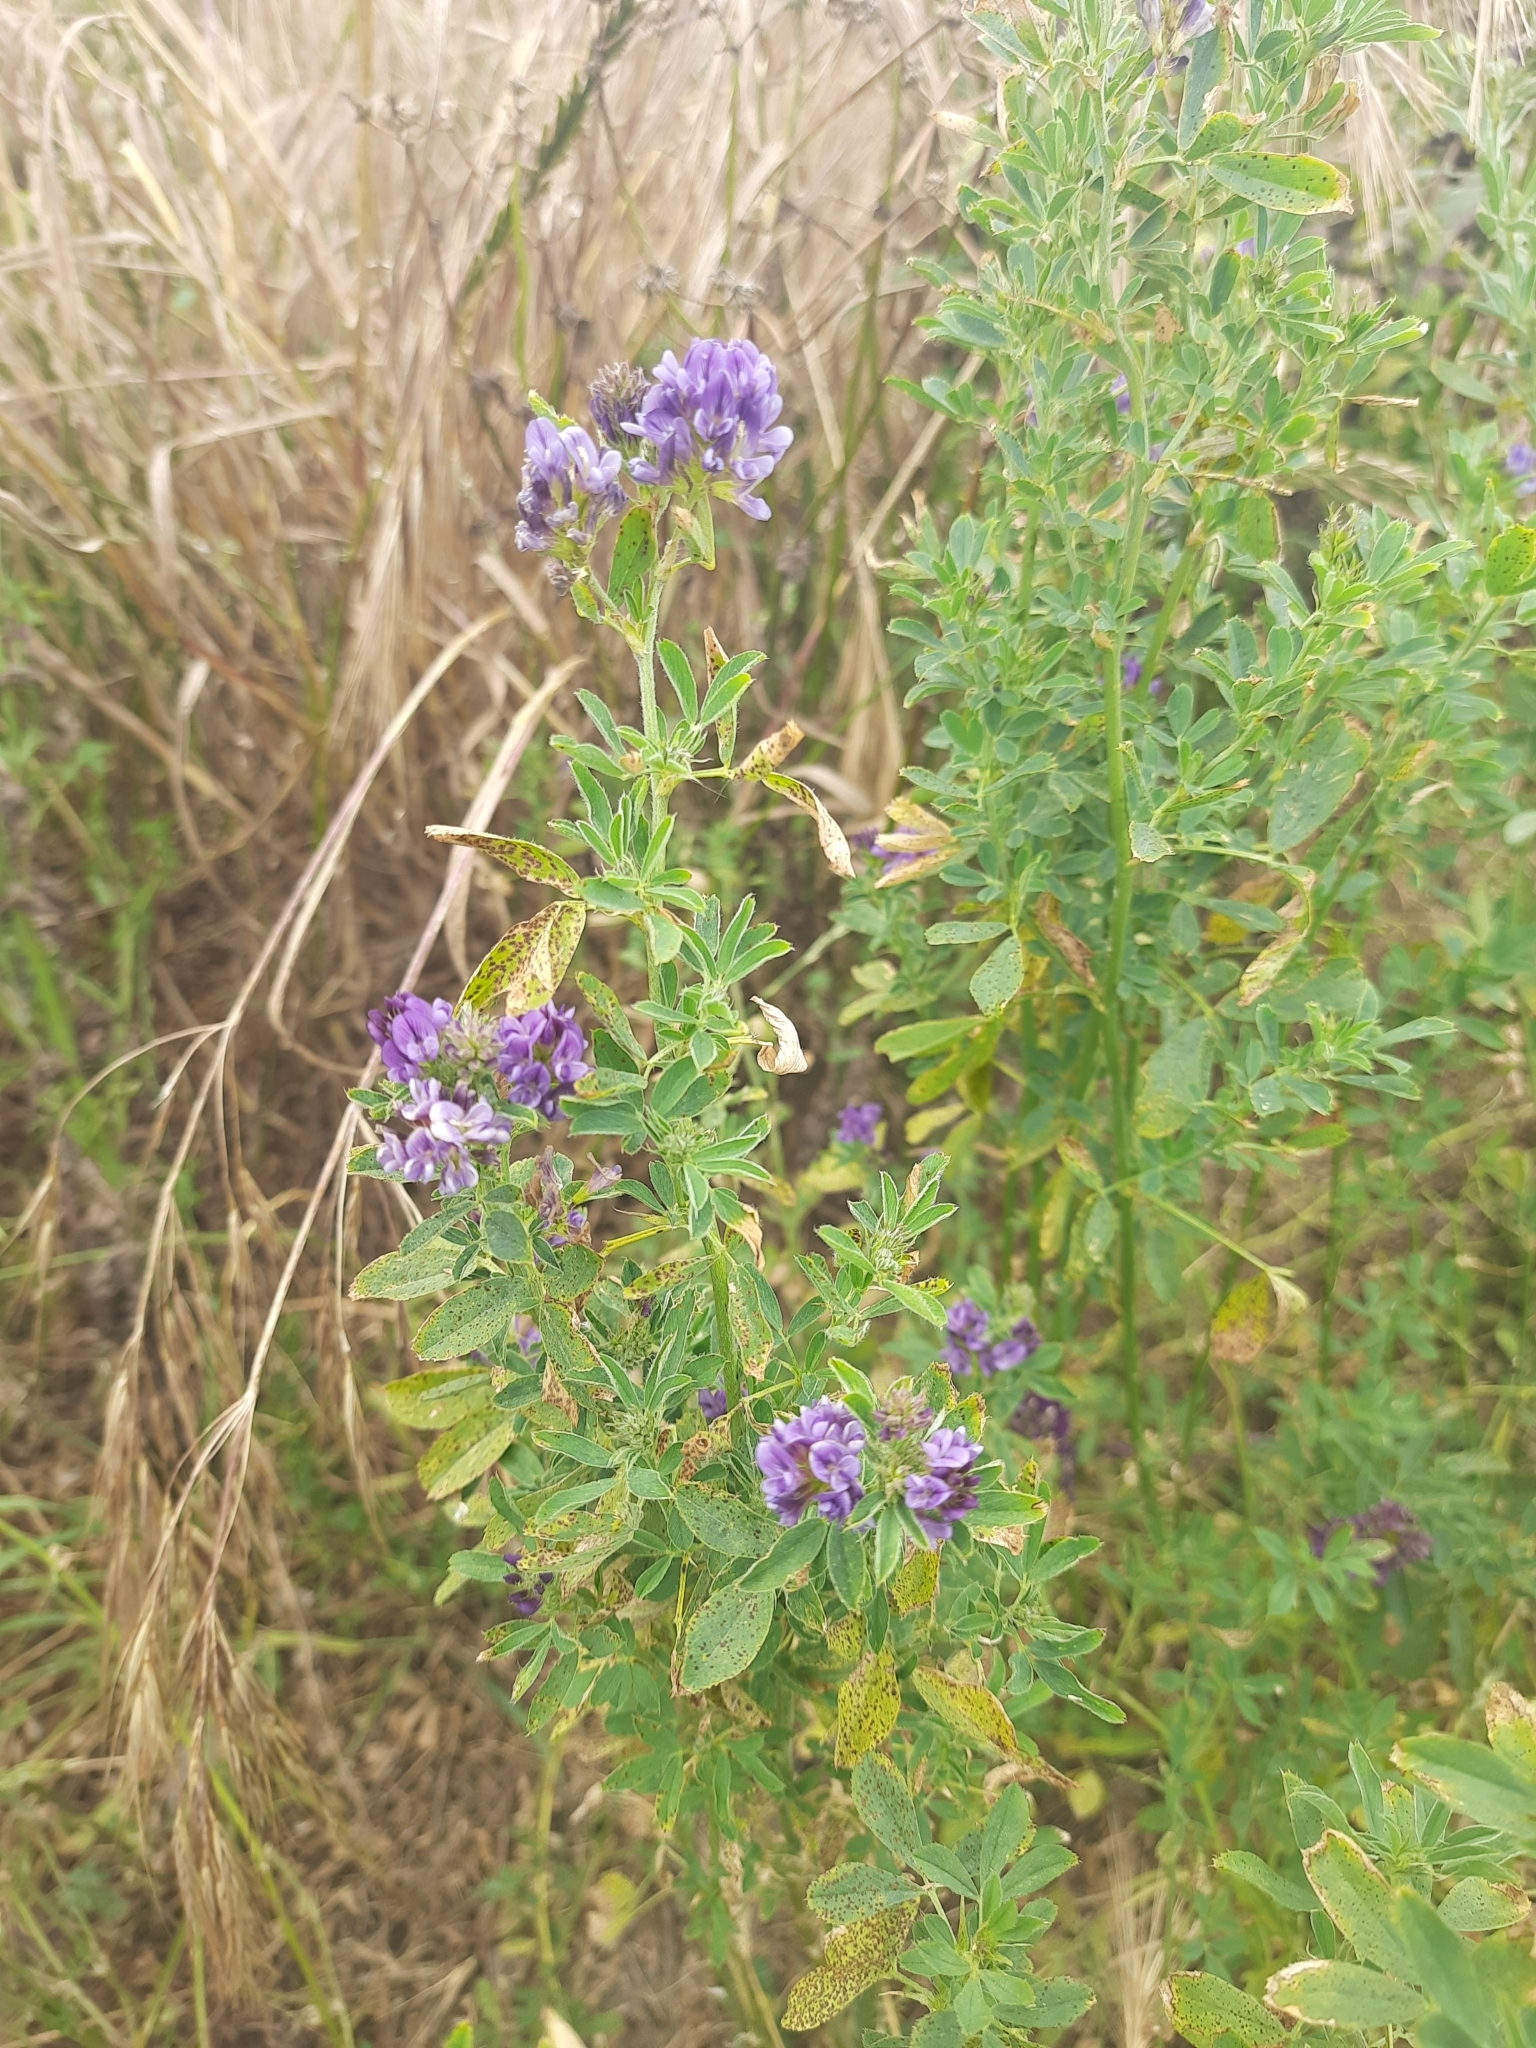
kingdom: Plantae
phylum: Tracheophyta
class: Magnoliopsida
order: Fabales
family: Fabaceae
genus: Medicago
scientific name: Medicago sativa
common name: Alfalfa
